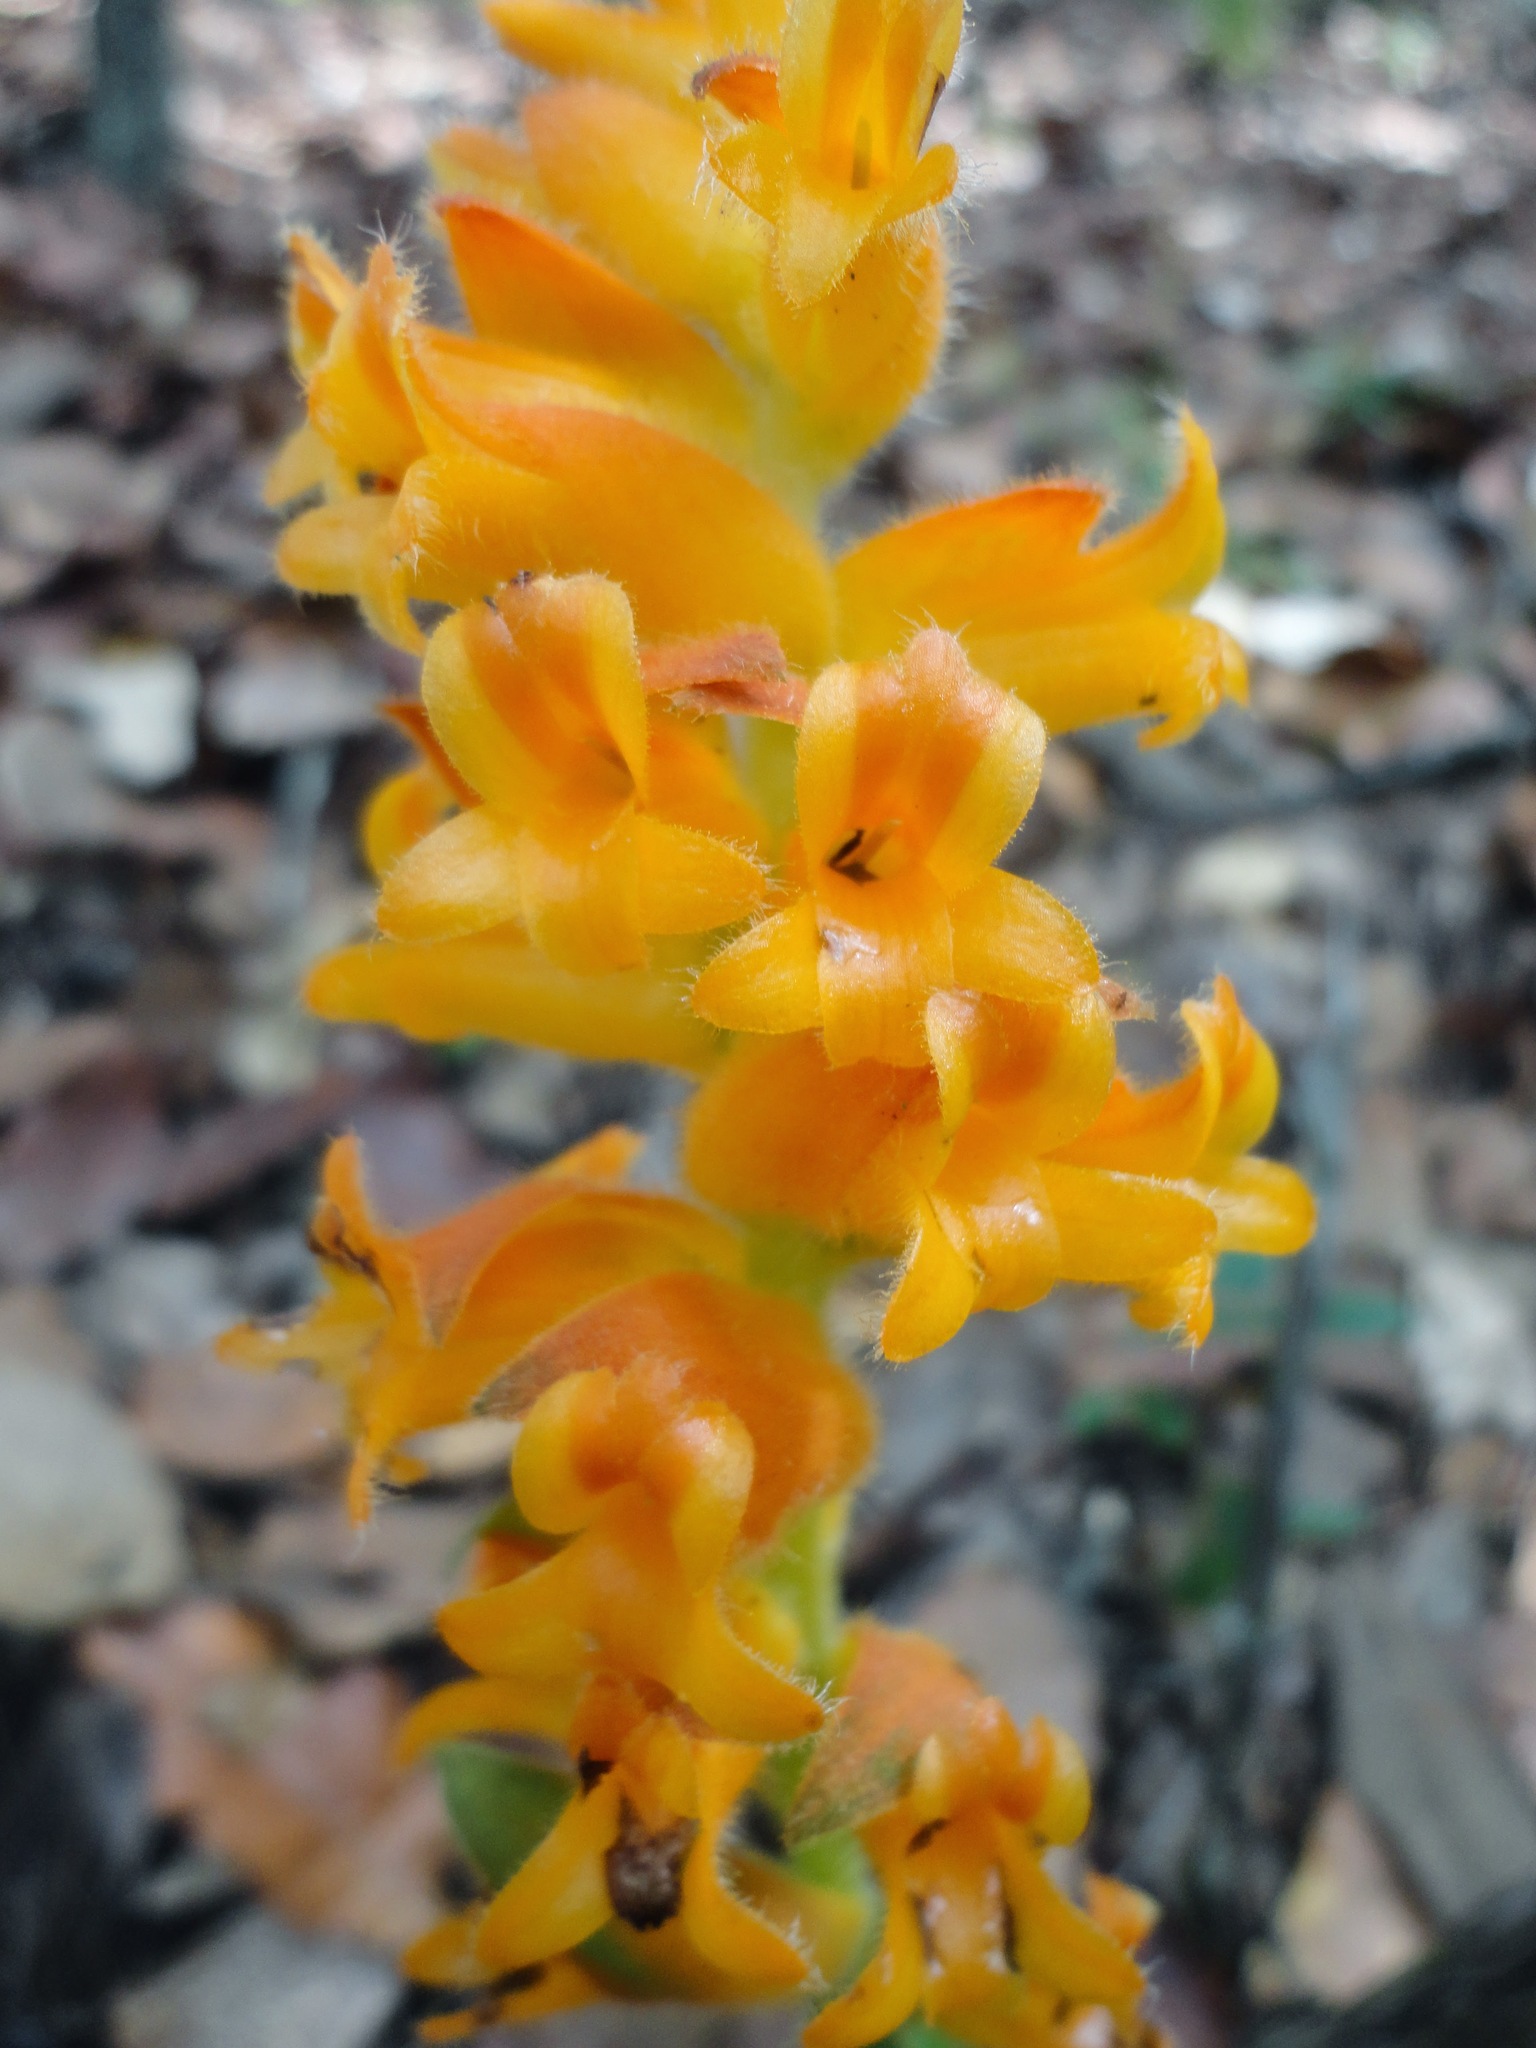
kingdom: Plantae
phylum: Tracheophyta
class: Liliopsida
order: Asparagales
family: Orchidaceae
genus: Dichromanthus
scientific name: Dichromanthus aurantiacus
